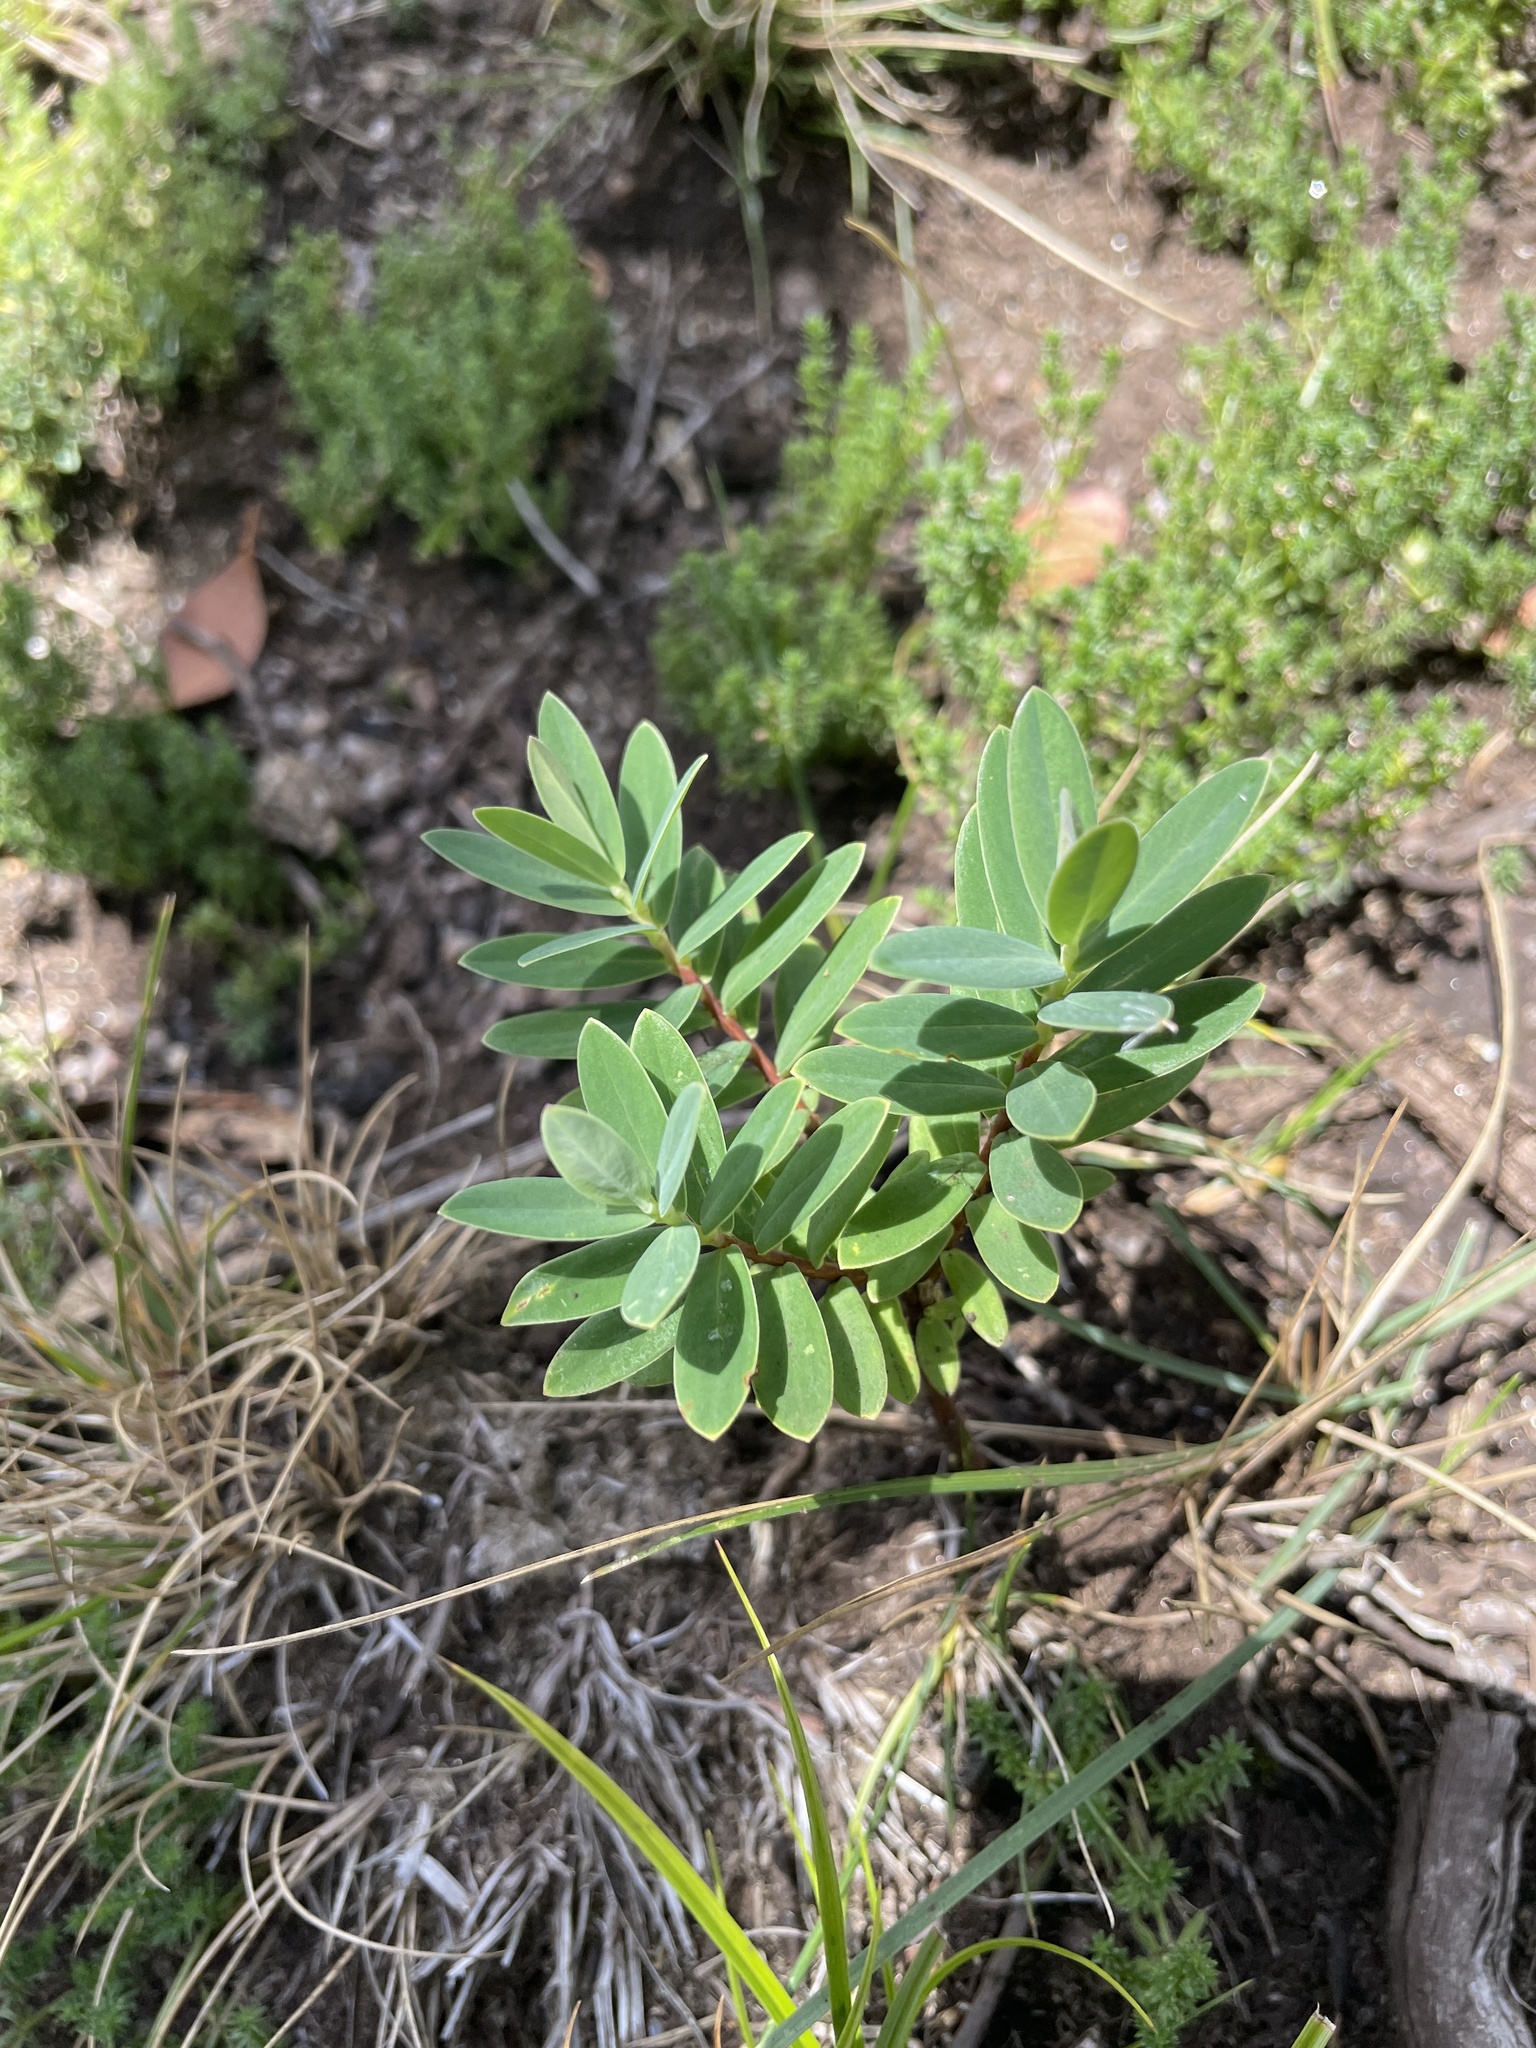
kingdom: Plantae
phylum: Tracheophyta
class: Magnoliopsida
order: Malvales
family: Thymelaeaceae
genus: Pimelea
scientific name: Pimelea ligustrina
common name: Tall riceflower
